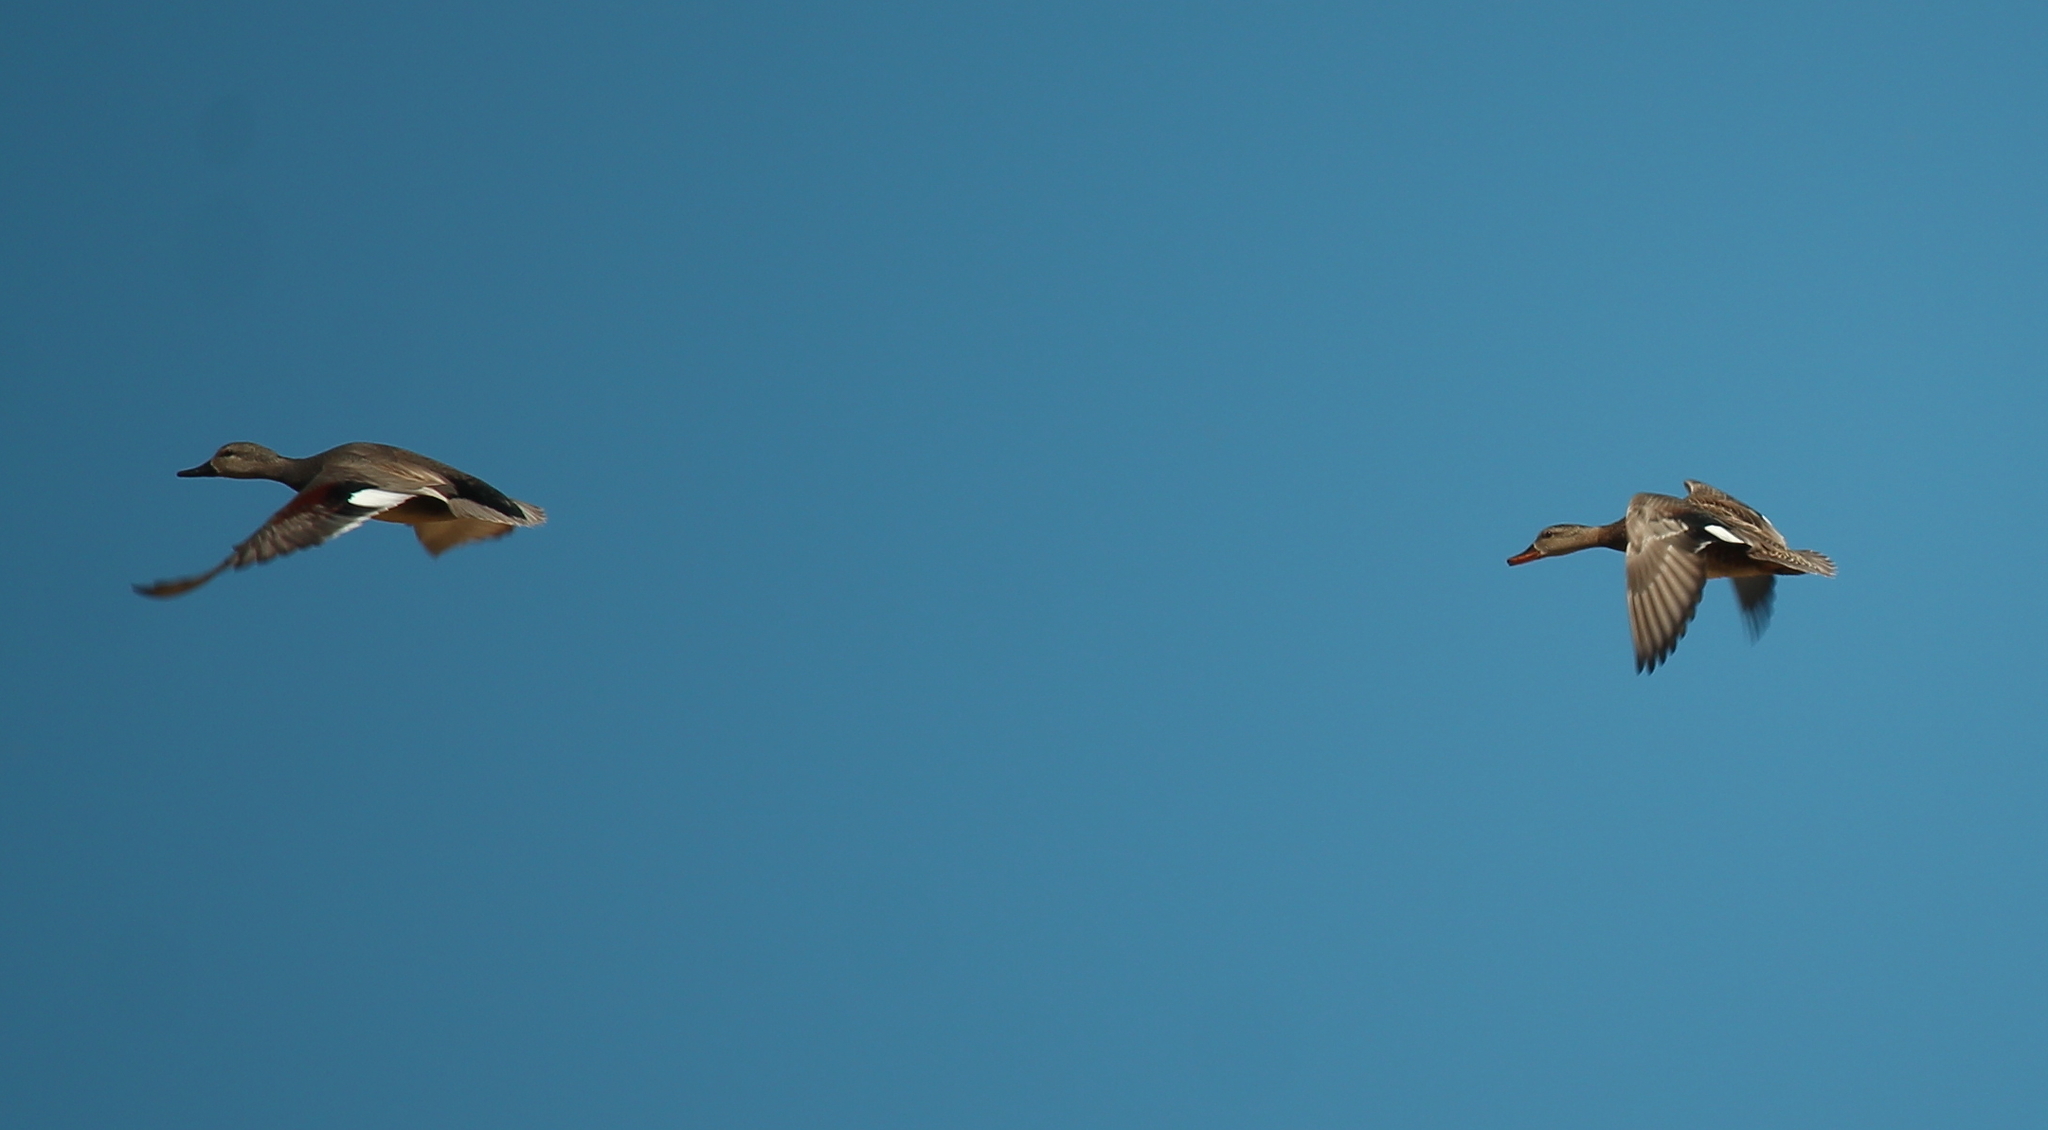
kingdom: Animalia
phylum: Chordata
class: Aves
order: Anseriformes
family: Anatidae
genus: Mareca
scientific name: Mareca strepera
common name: Gadwall
